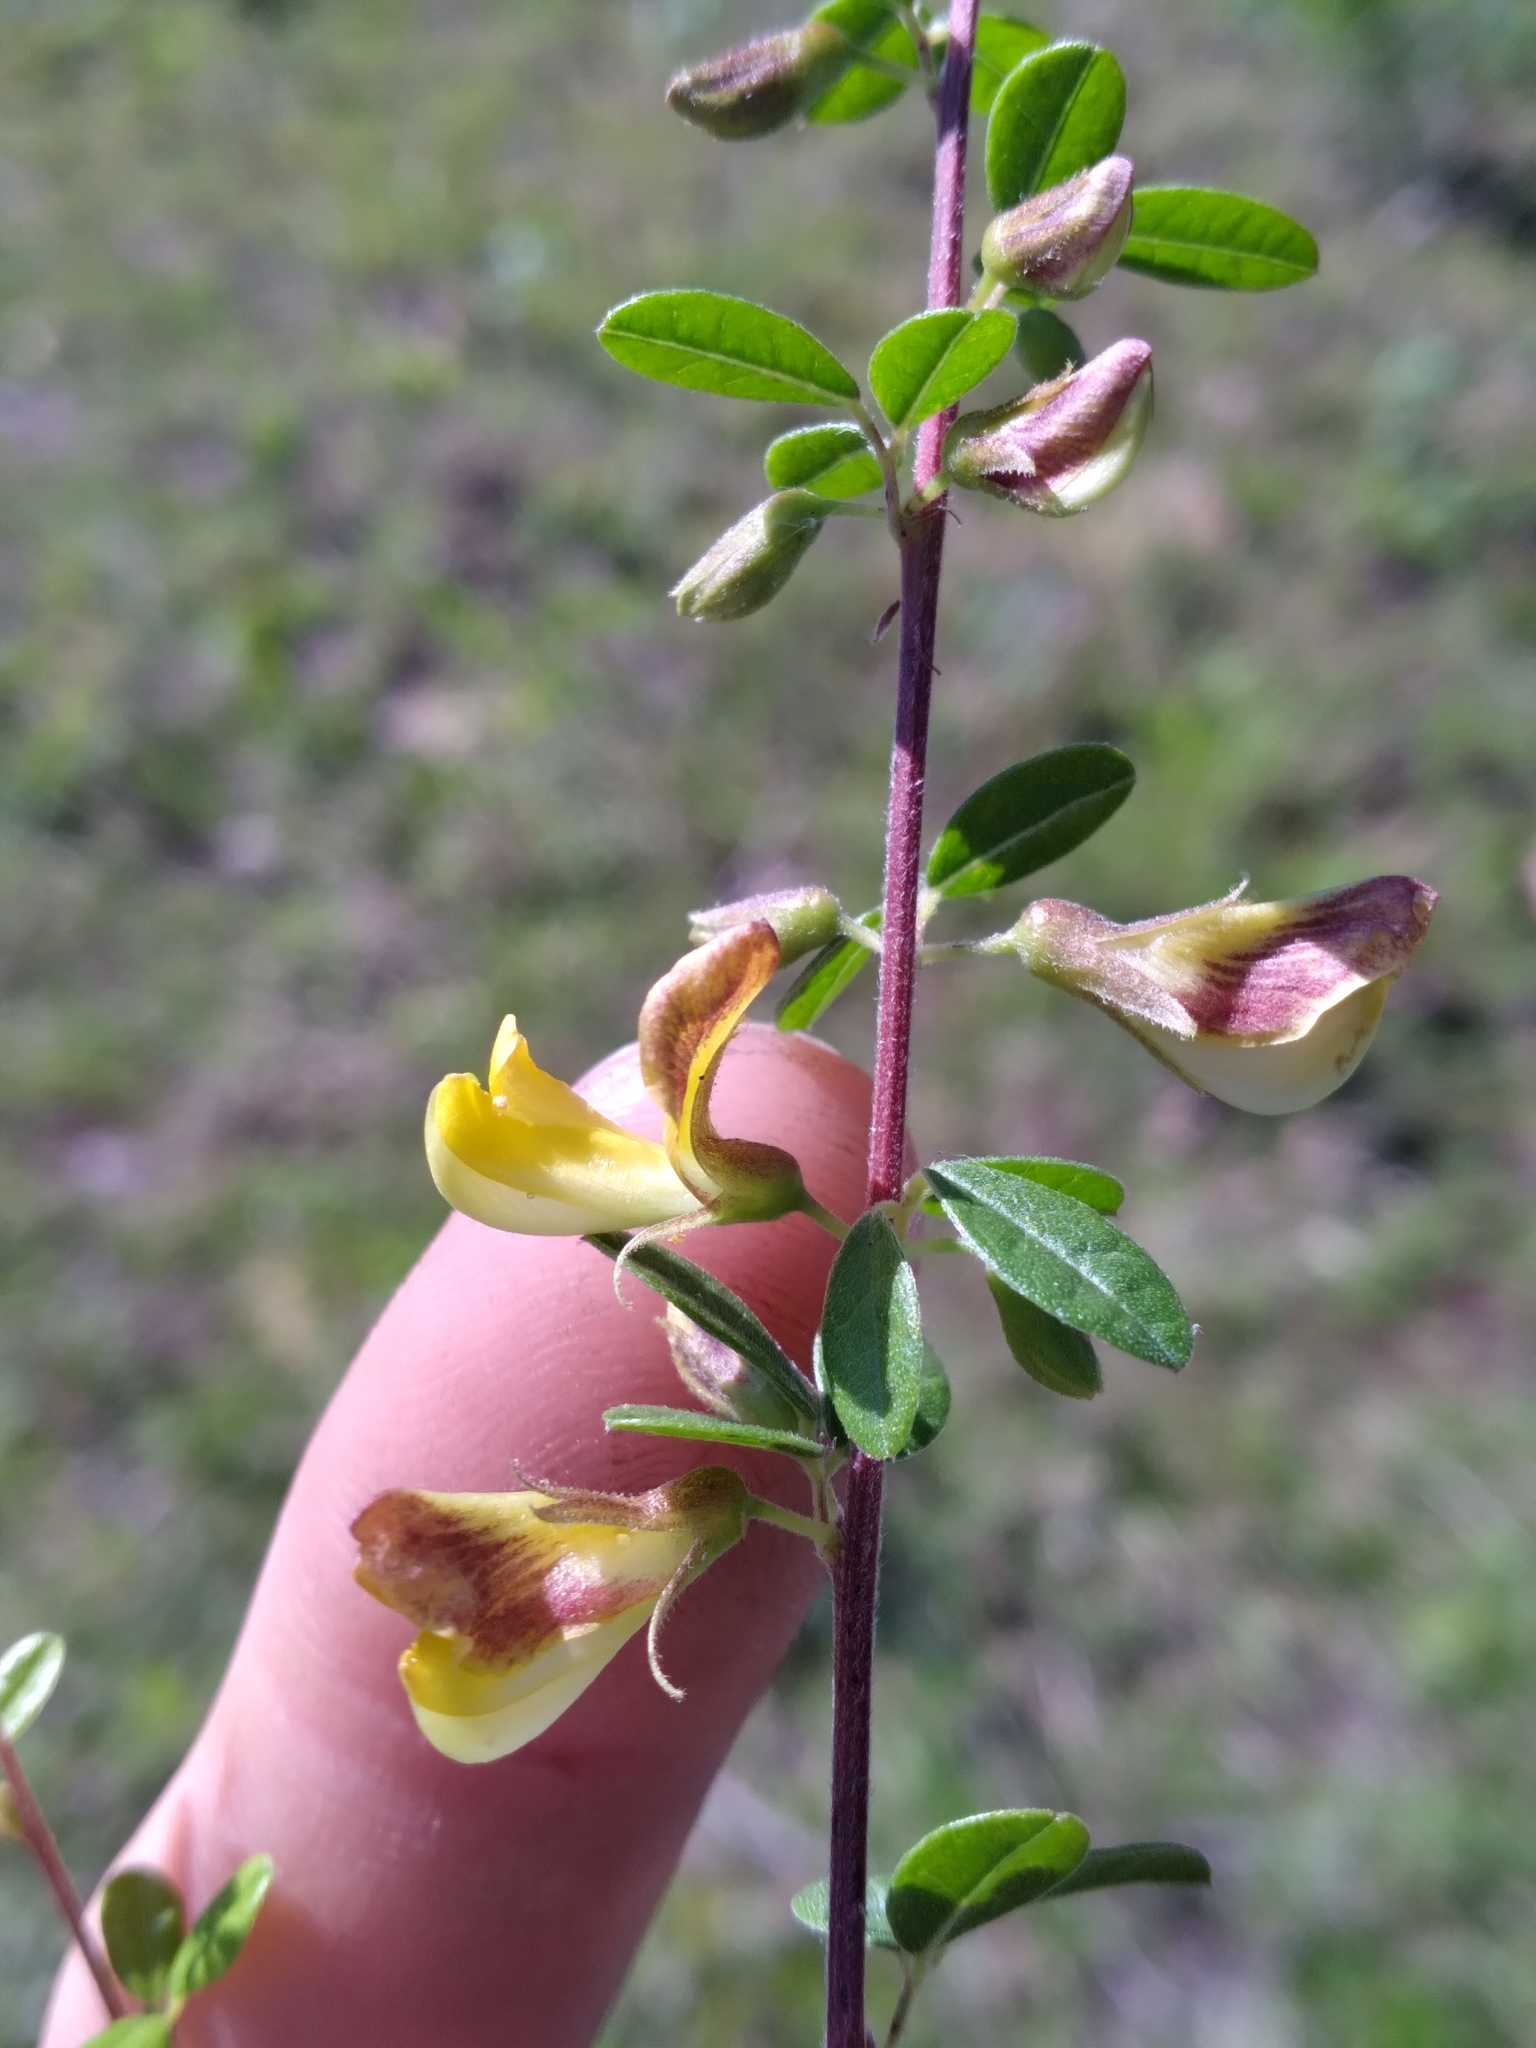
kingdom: Plantae
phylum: Tracheophyta
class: Magnoliopsida
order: Fabales
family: Fabaceae
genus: Rhynchosia
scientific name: Rhynchosia cytisoides
